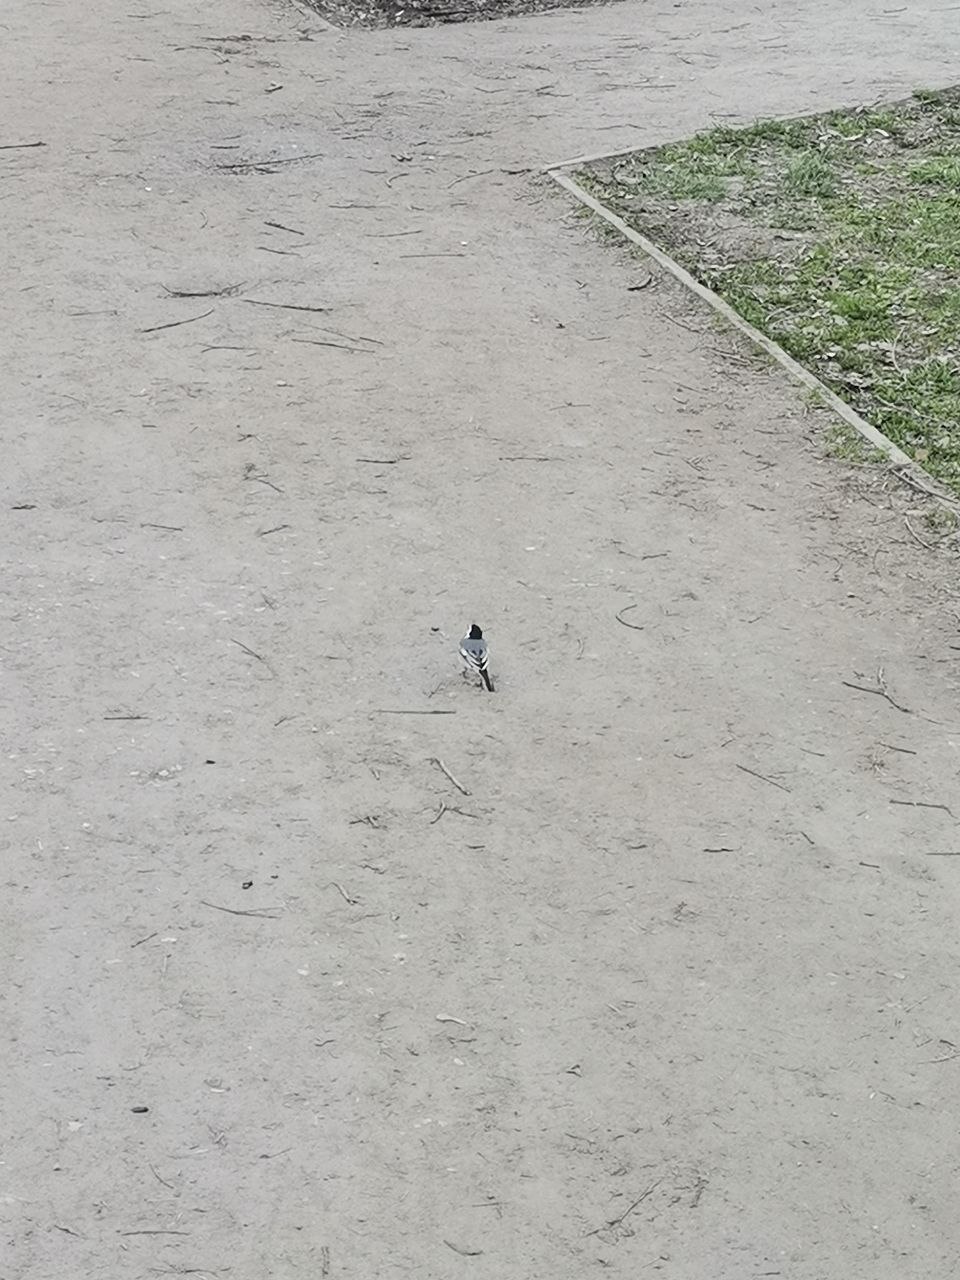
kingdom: Animalia
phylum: Chordata
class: Aves
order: Passeriformes
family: Motacillidae
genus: Motacilla
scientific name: Motacilla alba
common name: White wagtail
